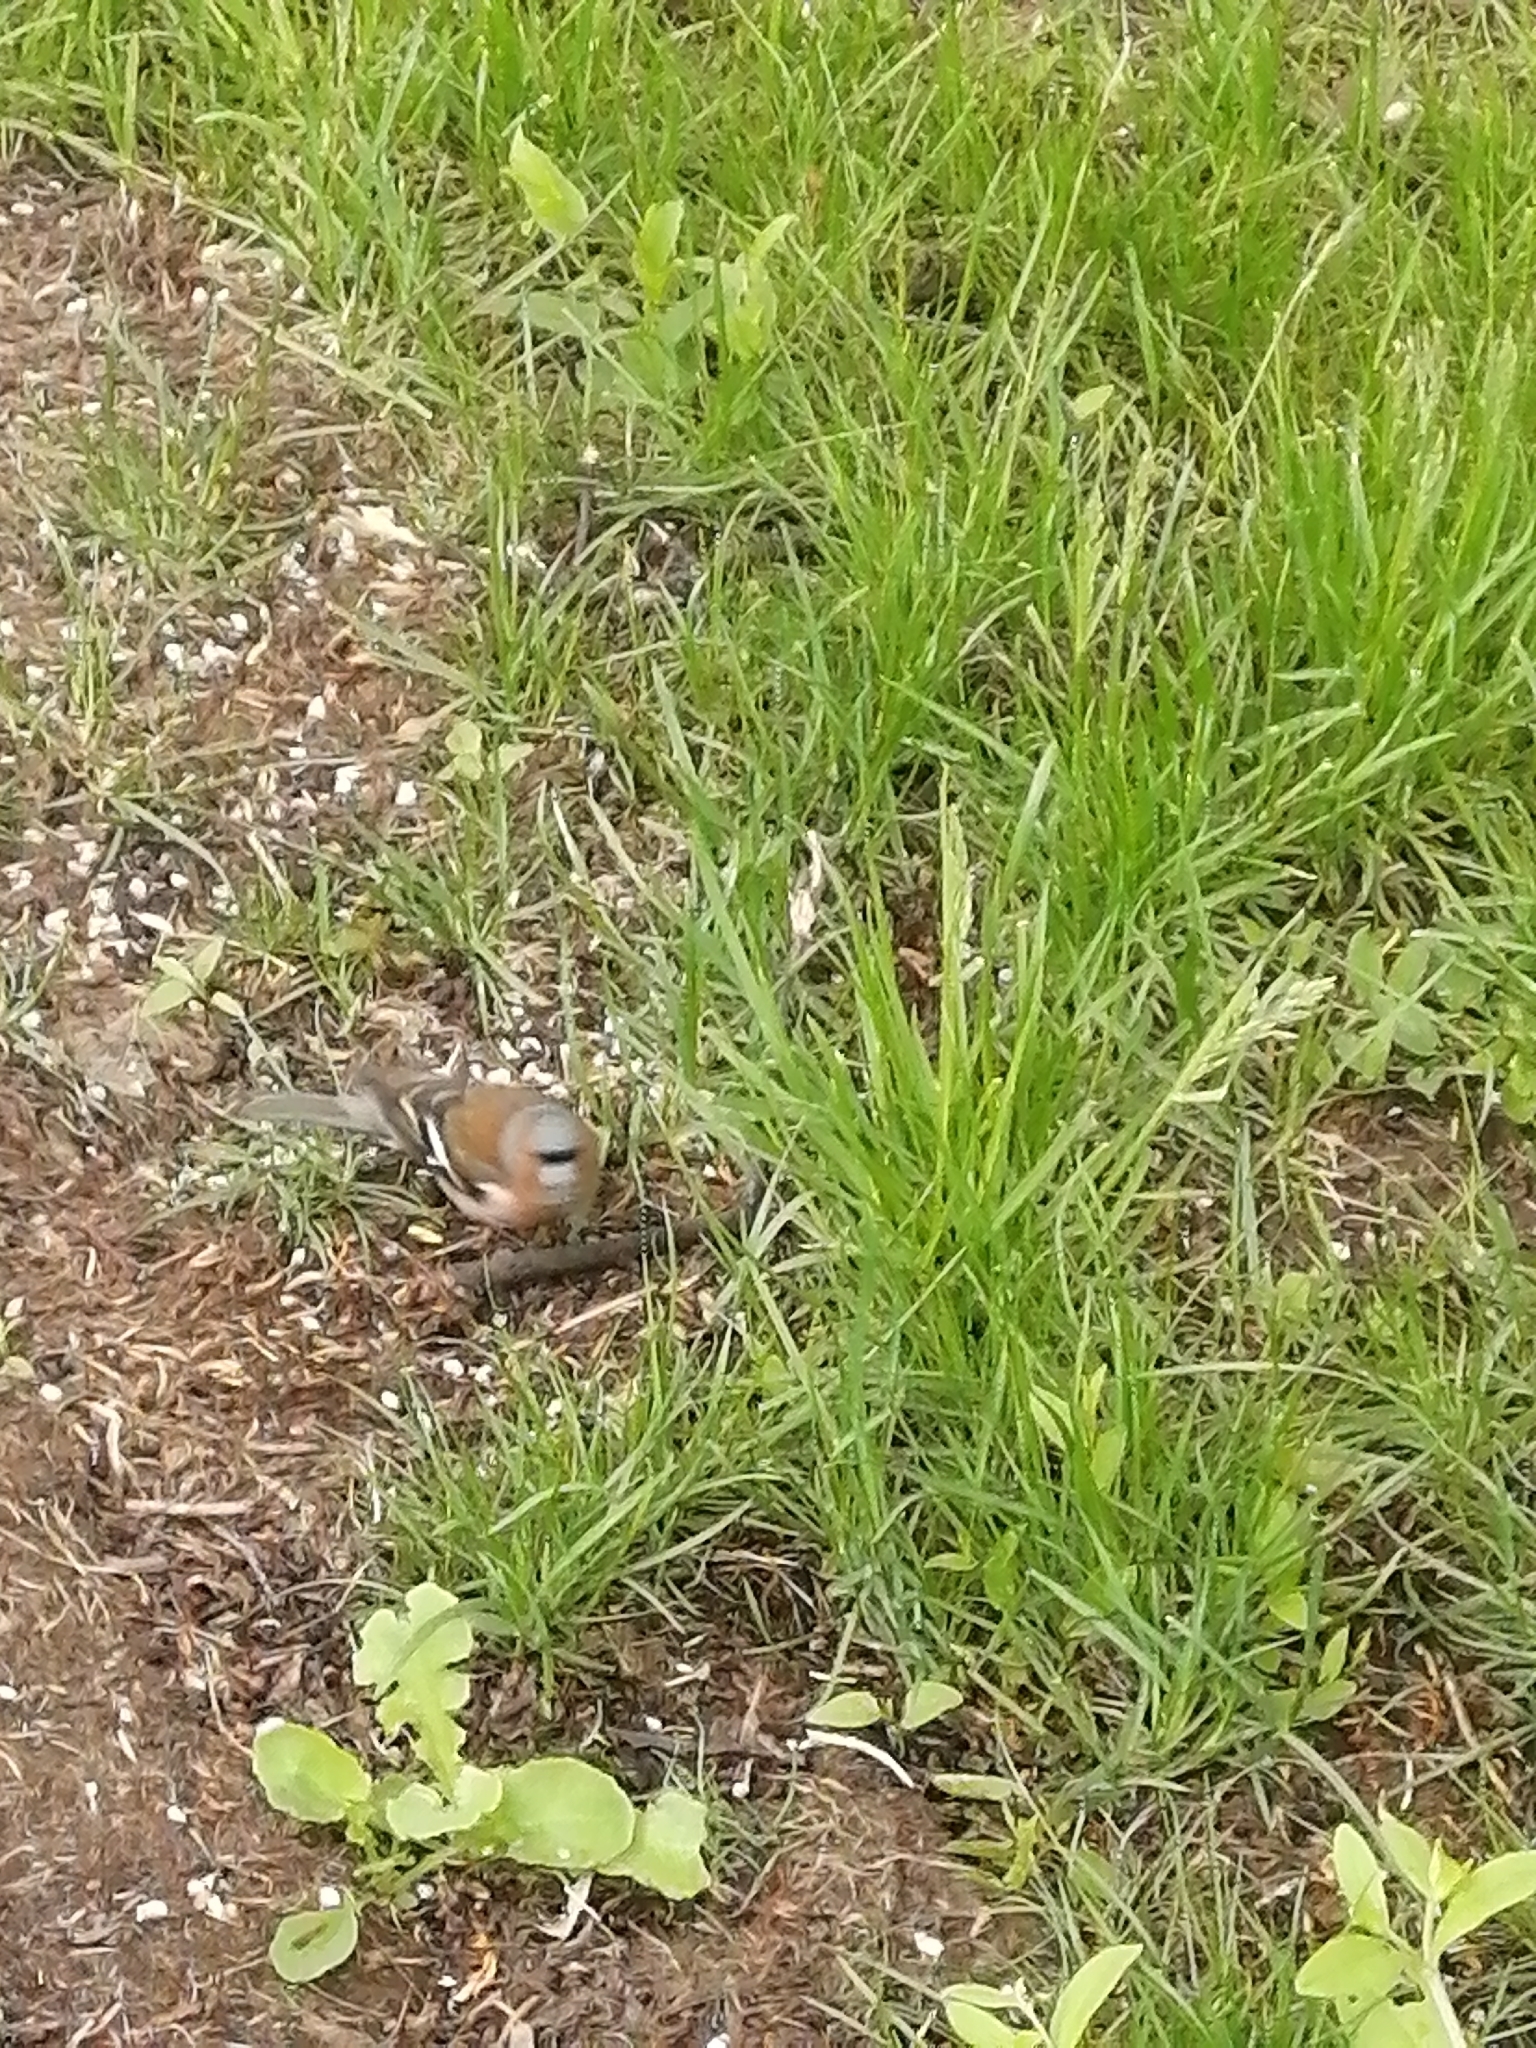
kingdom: Animalia
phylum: Chordata
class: Aves
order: Passeriformes
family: Fringillidae
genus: Fringilla
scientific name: Fringilla coelebs
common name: Common chaffinch
